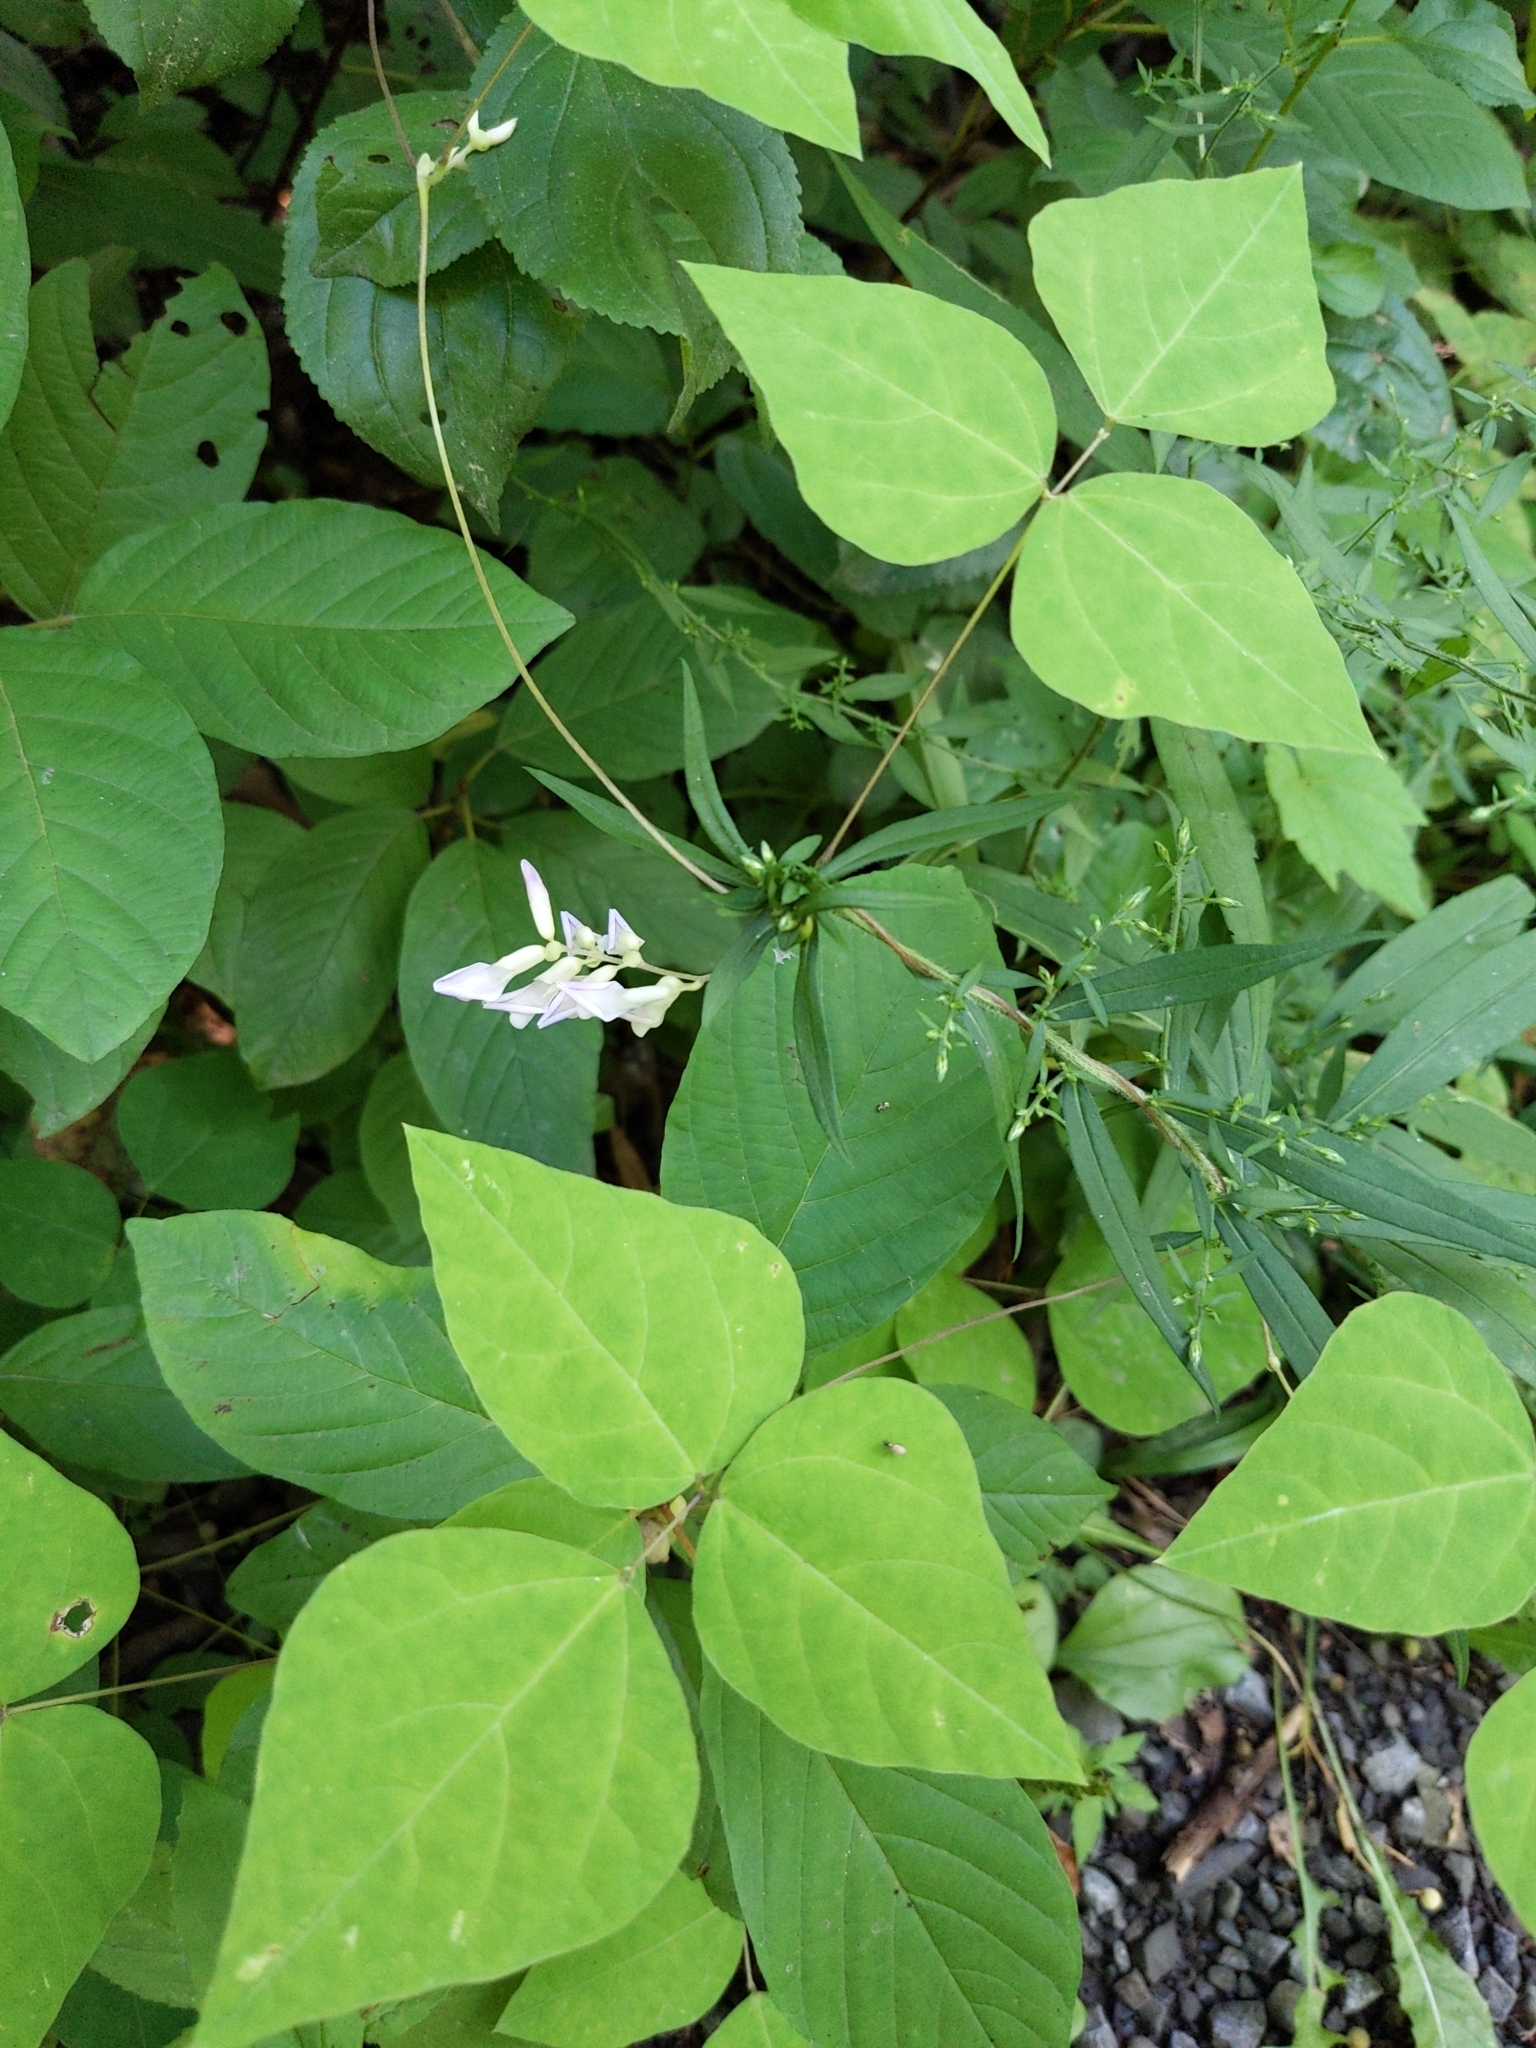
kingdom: Plantae
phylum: Tracheophyta
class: Magnoliopsida
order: Fabales
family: Fabaceae
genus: Amphicarpaea
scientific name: Amphicarpaea bracteata
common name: American hog peanut
